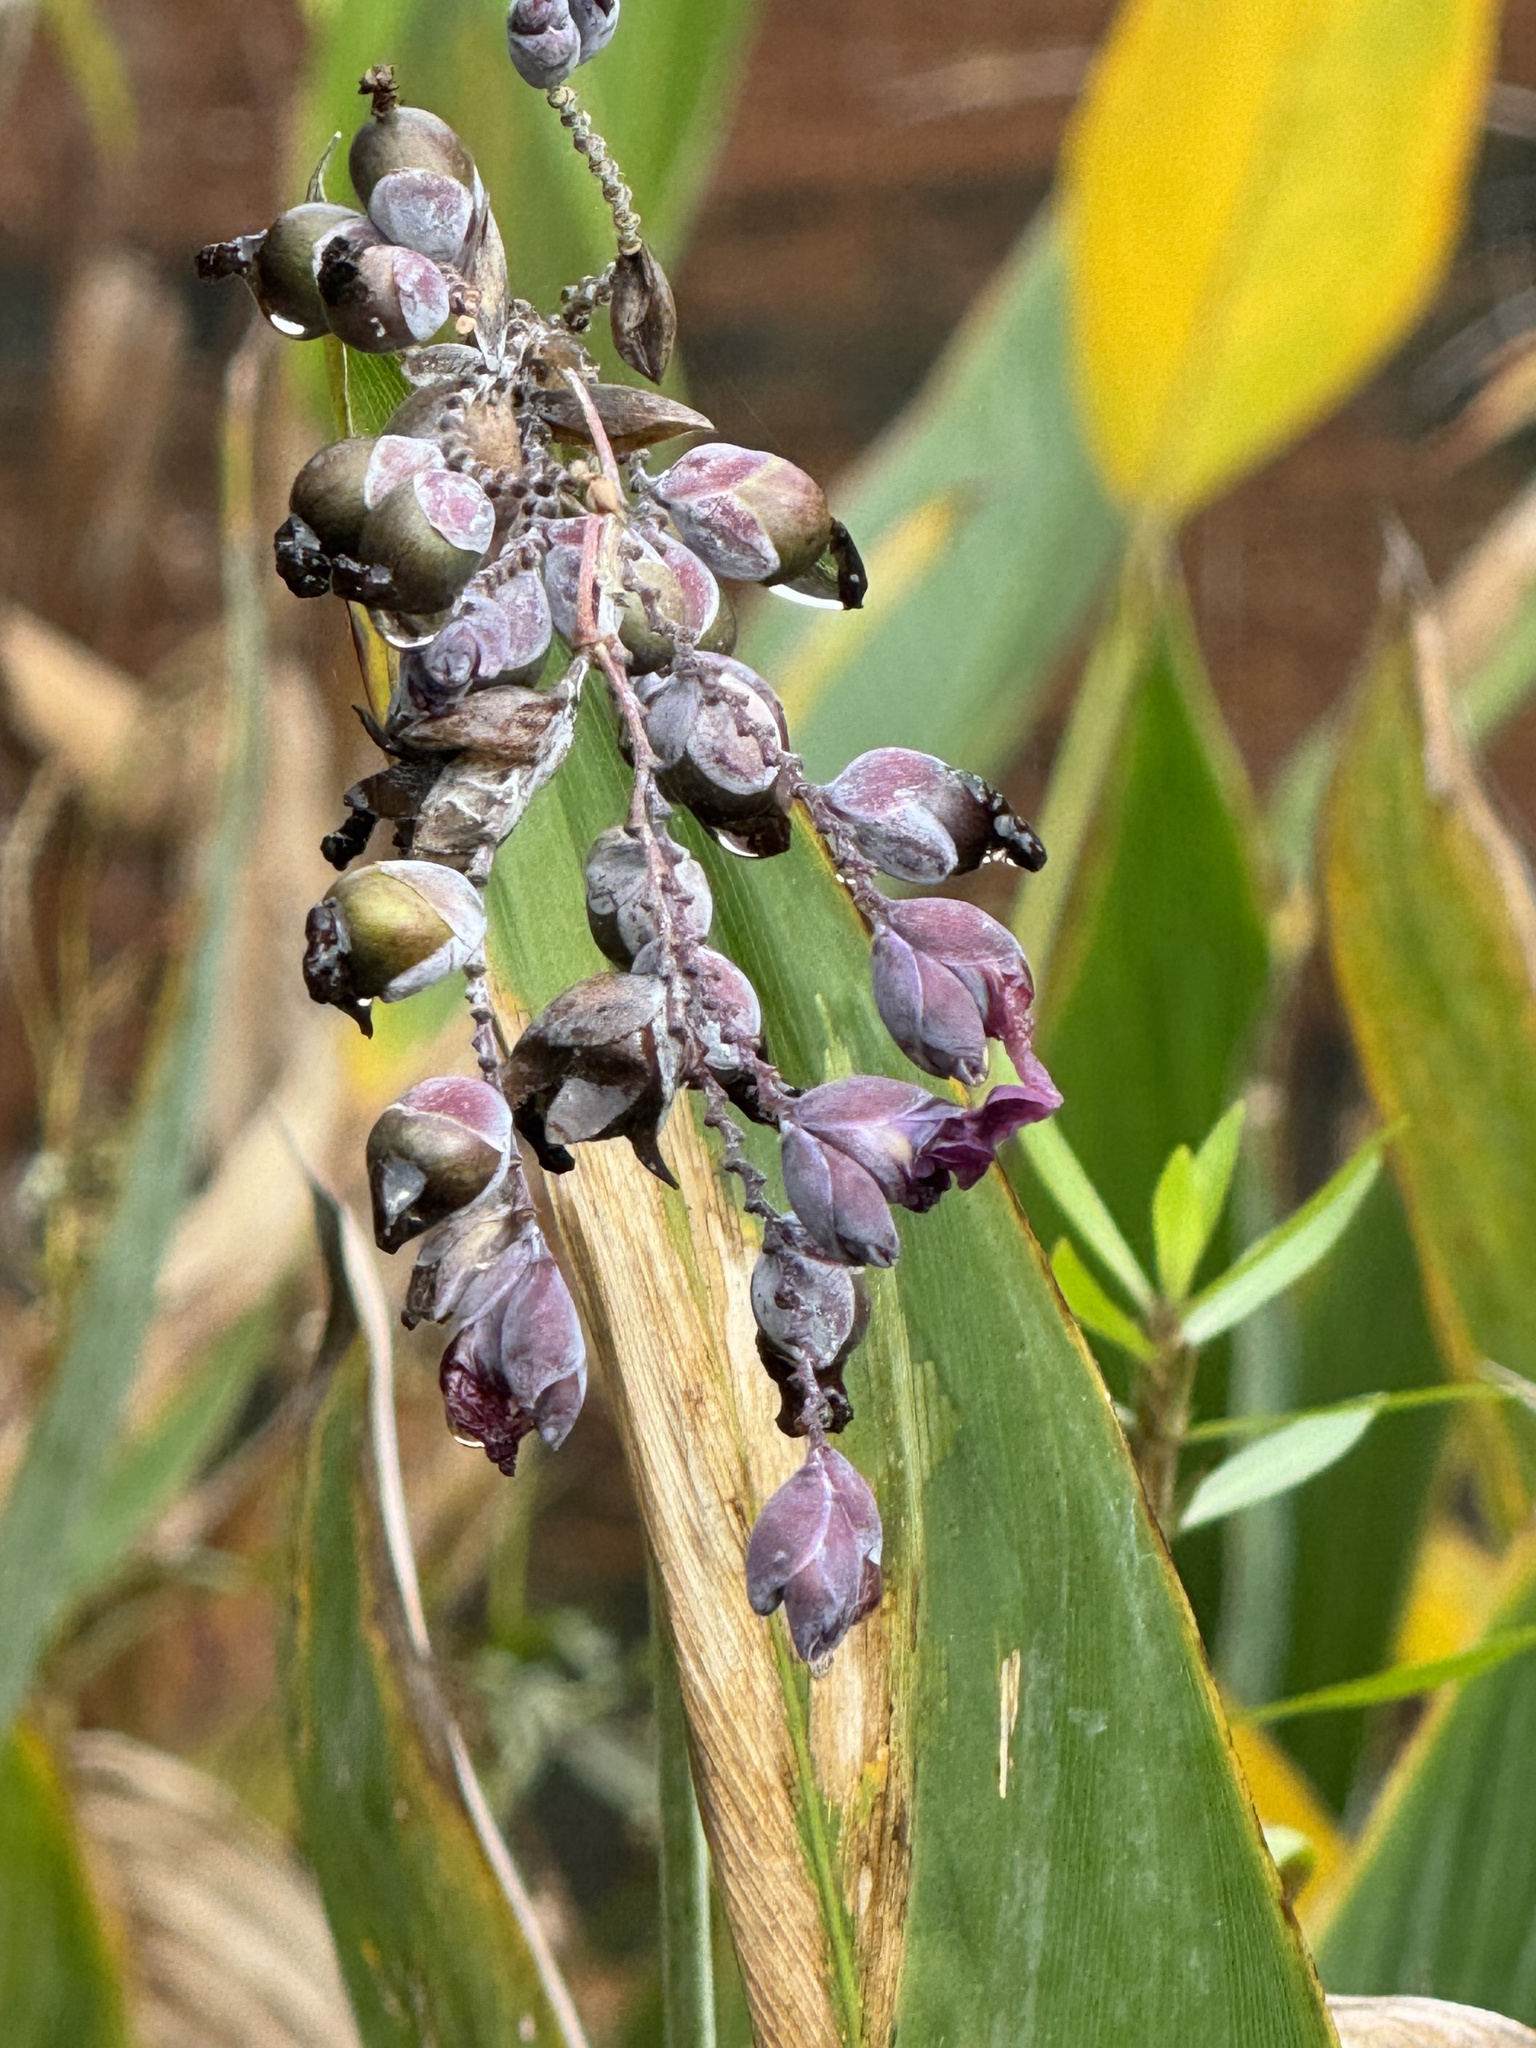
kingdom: Plantae
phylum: Tracheophyta
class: Liliopsida
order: Zingiberales
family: Marantaceae
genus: Thalia
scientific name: Thalia dealbata
